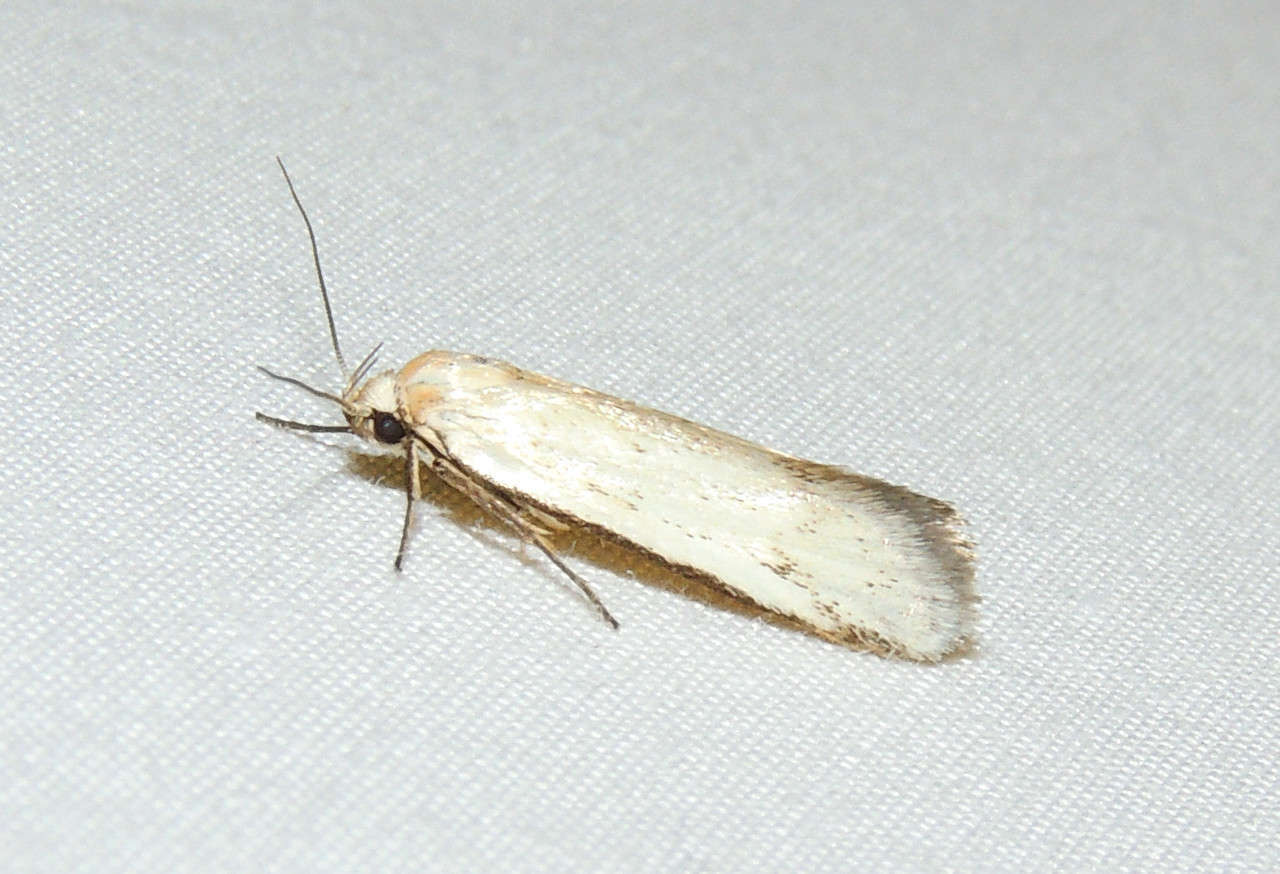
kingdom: Animalia
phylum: Arthropoda
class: Insecta
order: Lepidoptera
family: Oecophoridae
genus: Philobota
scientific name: Philobota productella
